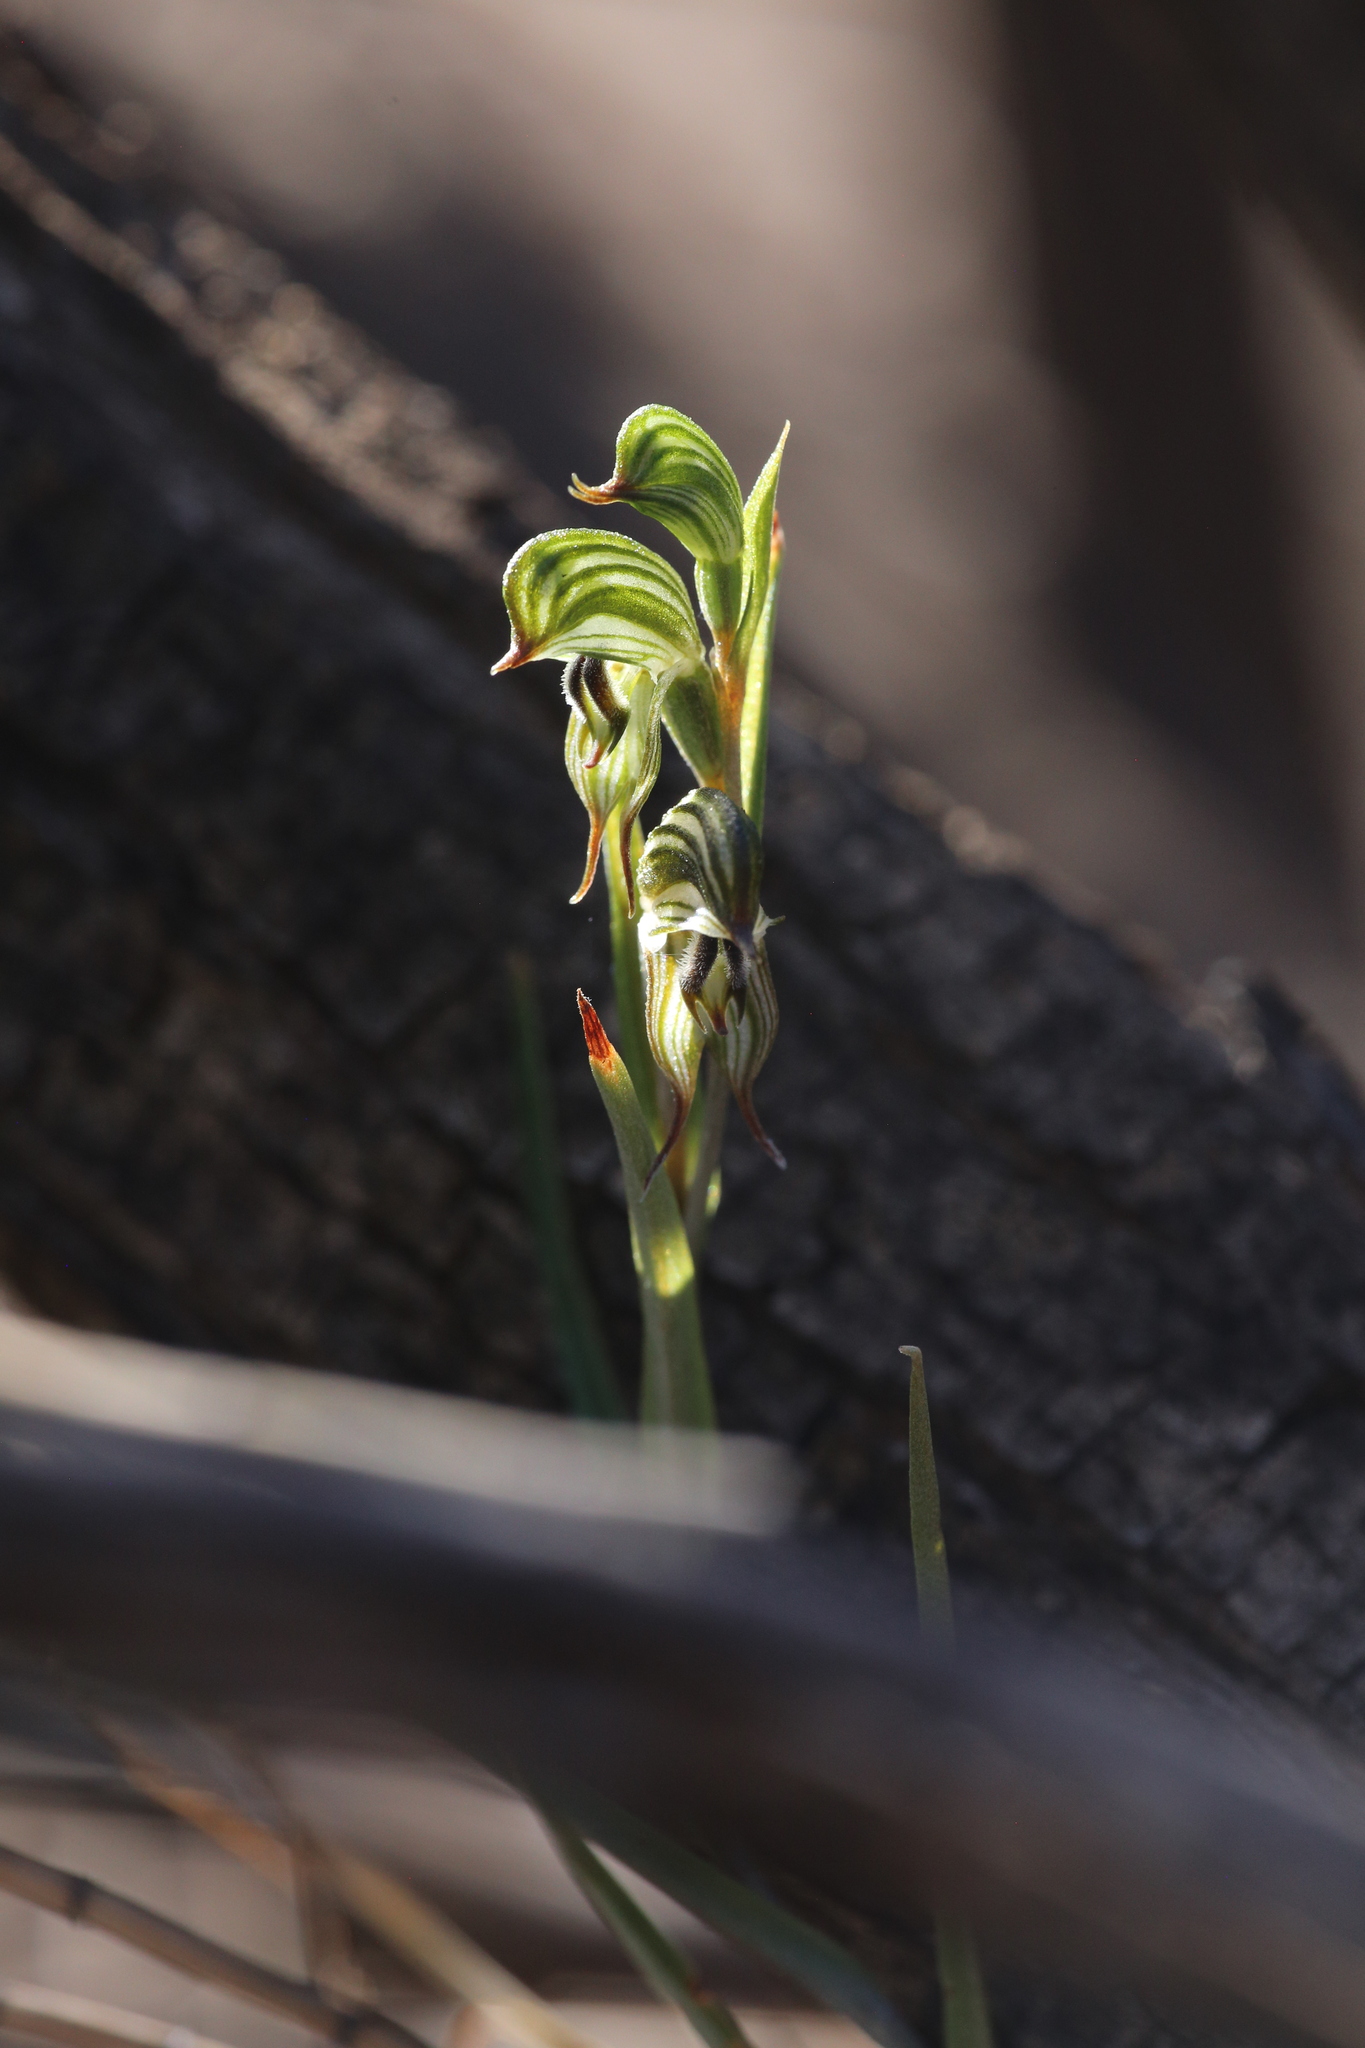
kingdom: Plantae
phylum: Tracheophyta
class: Liliopsida
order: Asparagales
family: Orchidaceae
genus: Pterostylis
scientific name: Pterostylis
